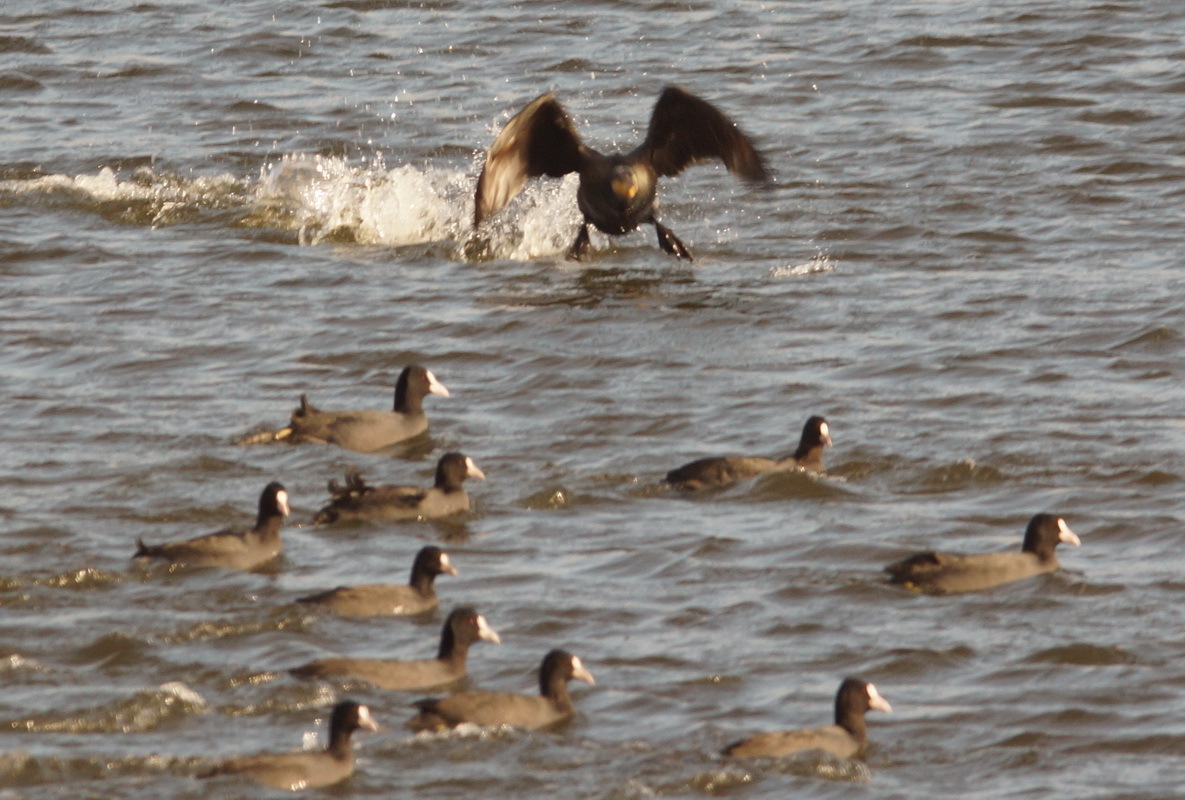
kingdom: Animalia
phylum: Chordata
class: Aves
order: Suliformes
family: Phalacrocoracidae
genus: Phalacrocorax
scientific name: Phalacrocorax carbo
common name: Great cormorant
